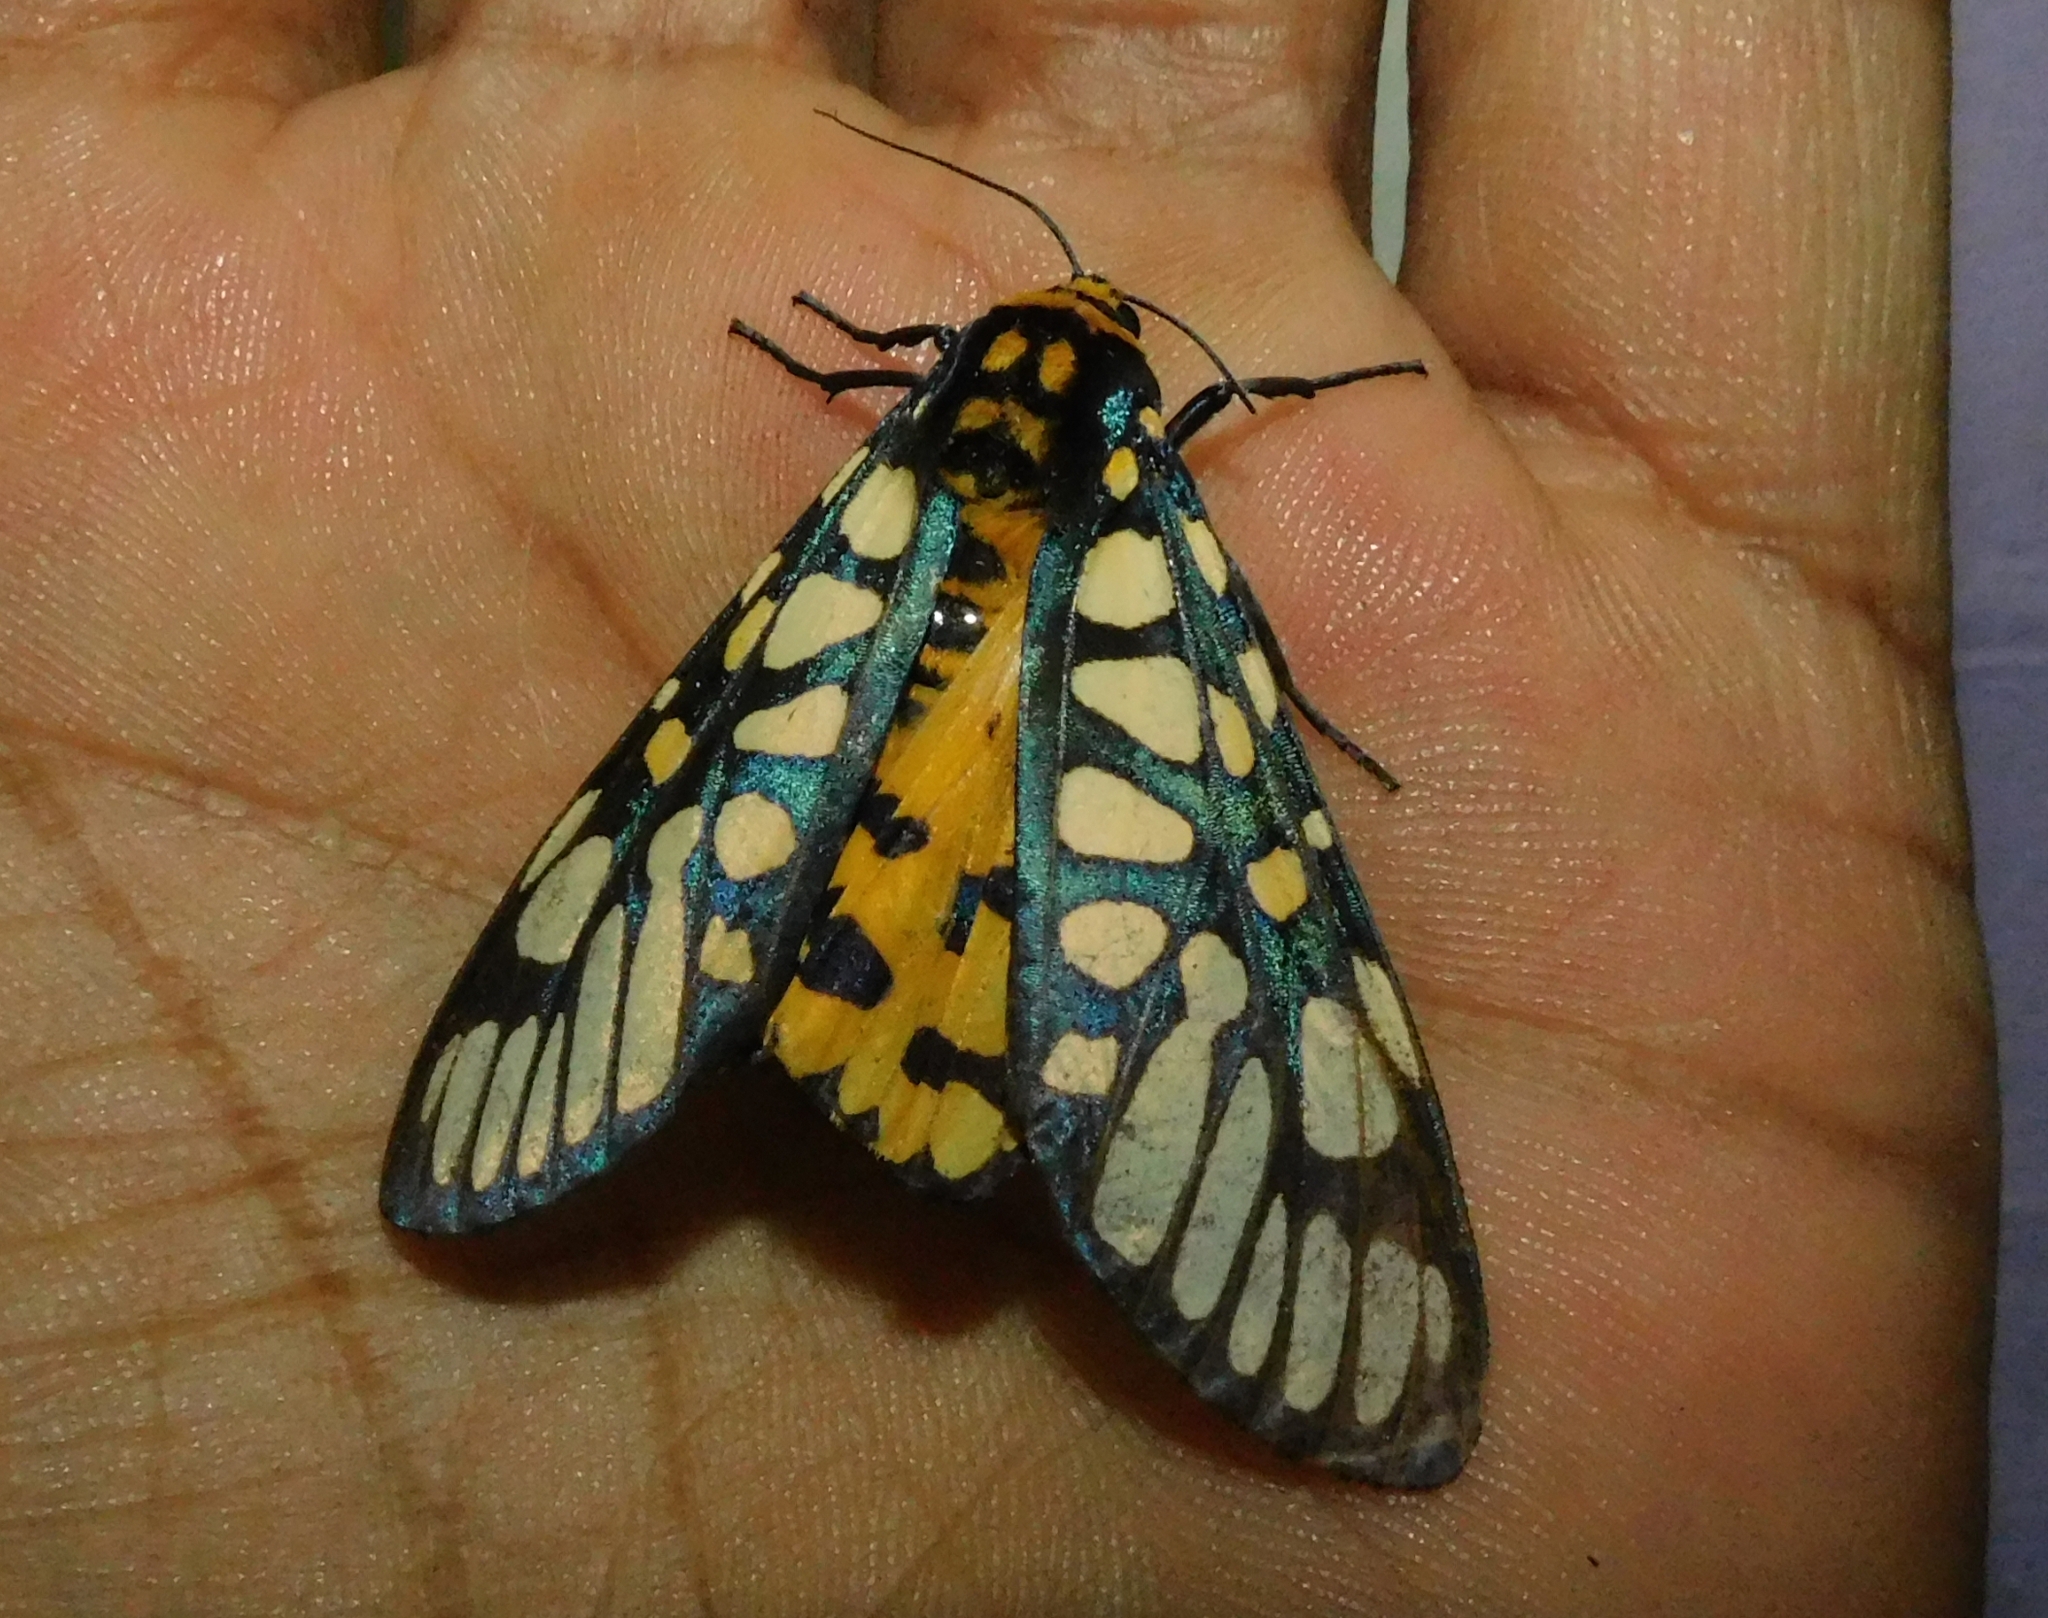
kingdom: Animalia
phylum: Arthropoda
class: Insecta
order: Lepidoptera
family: Erebidae
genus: Aglaomorpha
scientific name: Aglaomorpha plagiata
